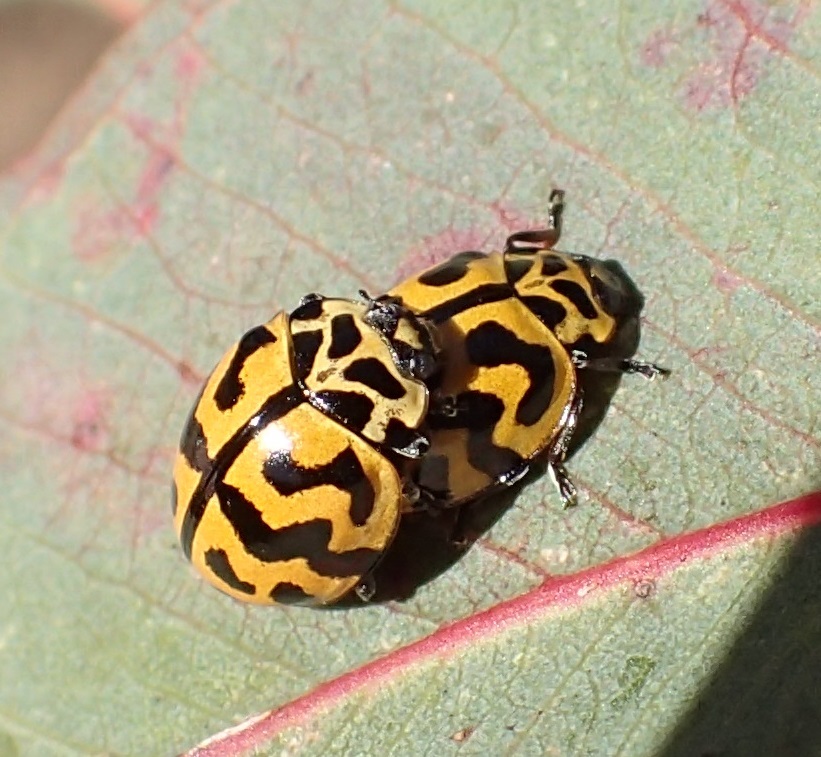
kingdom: Animalia
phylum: Arthropoda
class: Insecta
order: Coleoptera
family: Coccinellidae
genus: Cleobora
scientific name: Cleobora
